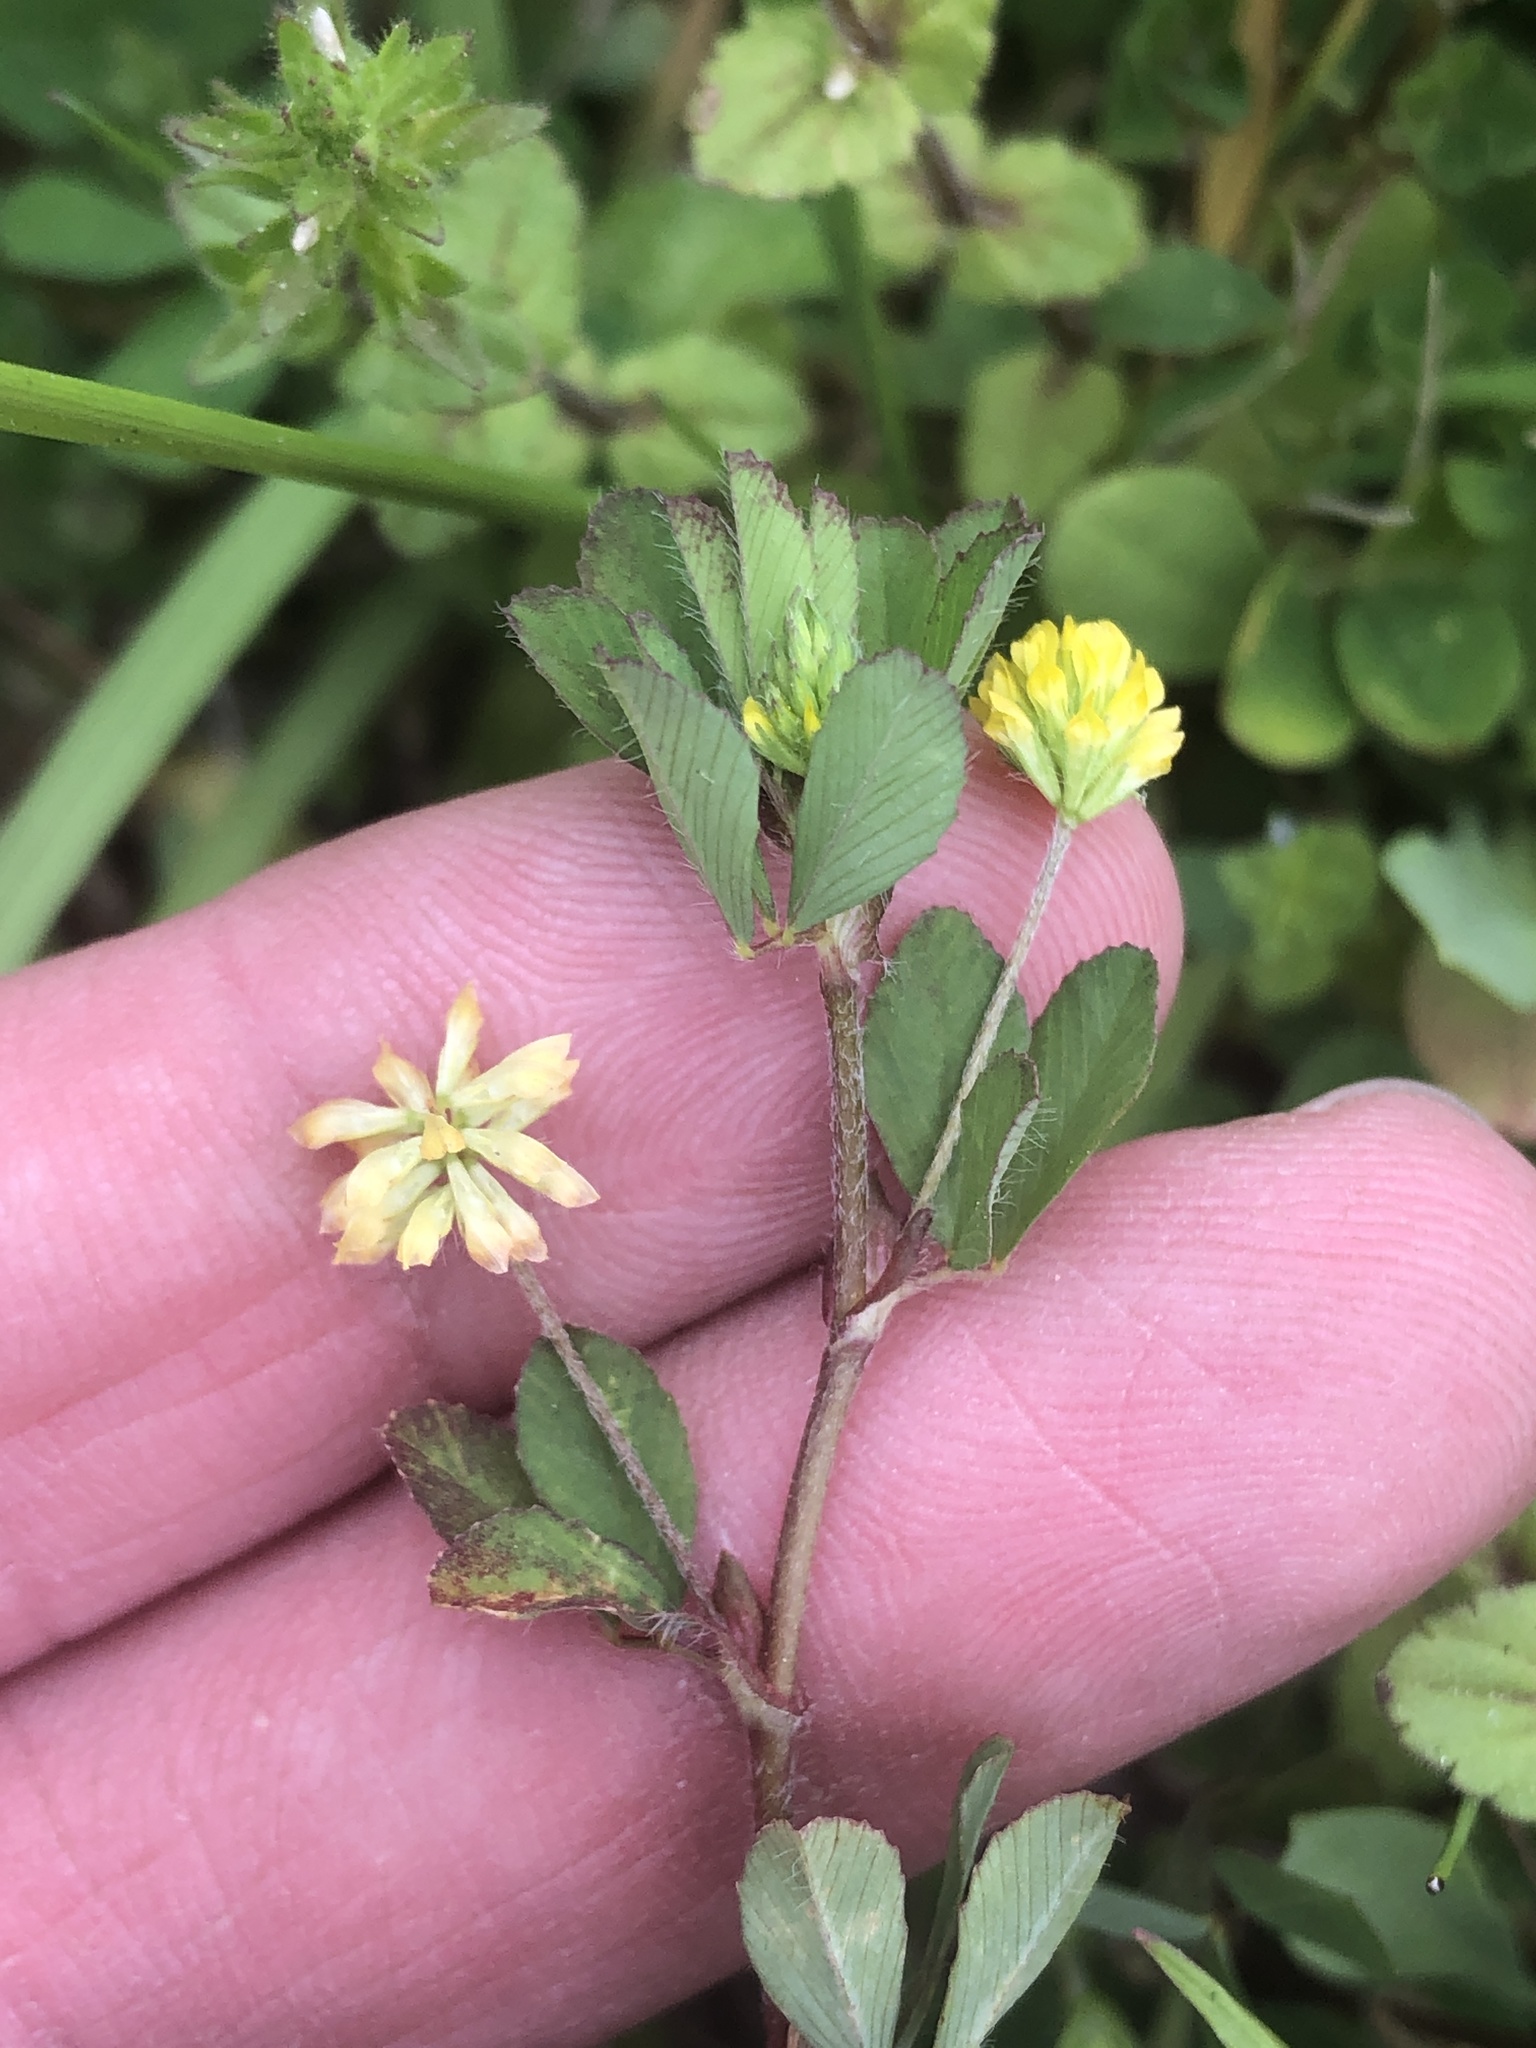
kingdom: Plantae
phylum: Tracheophyta
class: Magnoliopsida
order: Fabales
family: Fabaceae
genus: Trifolium
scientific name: Trifolium dubium
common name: Suckling clover
